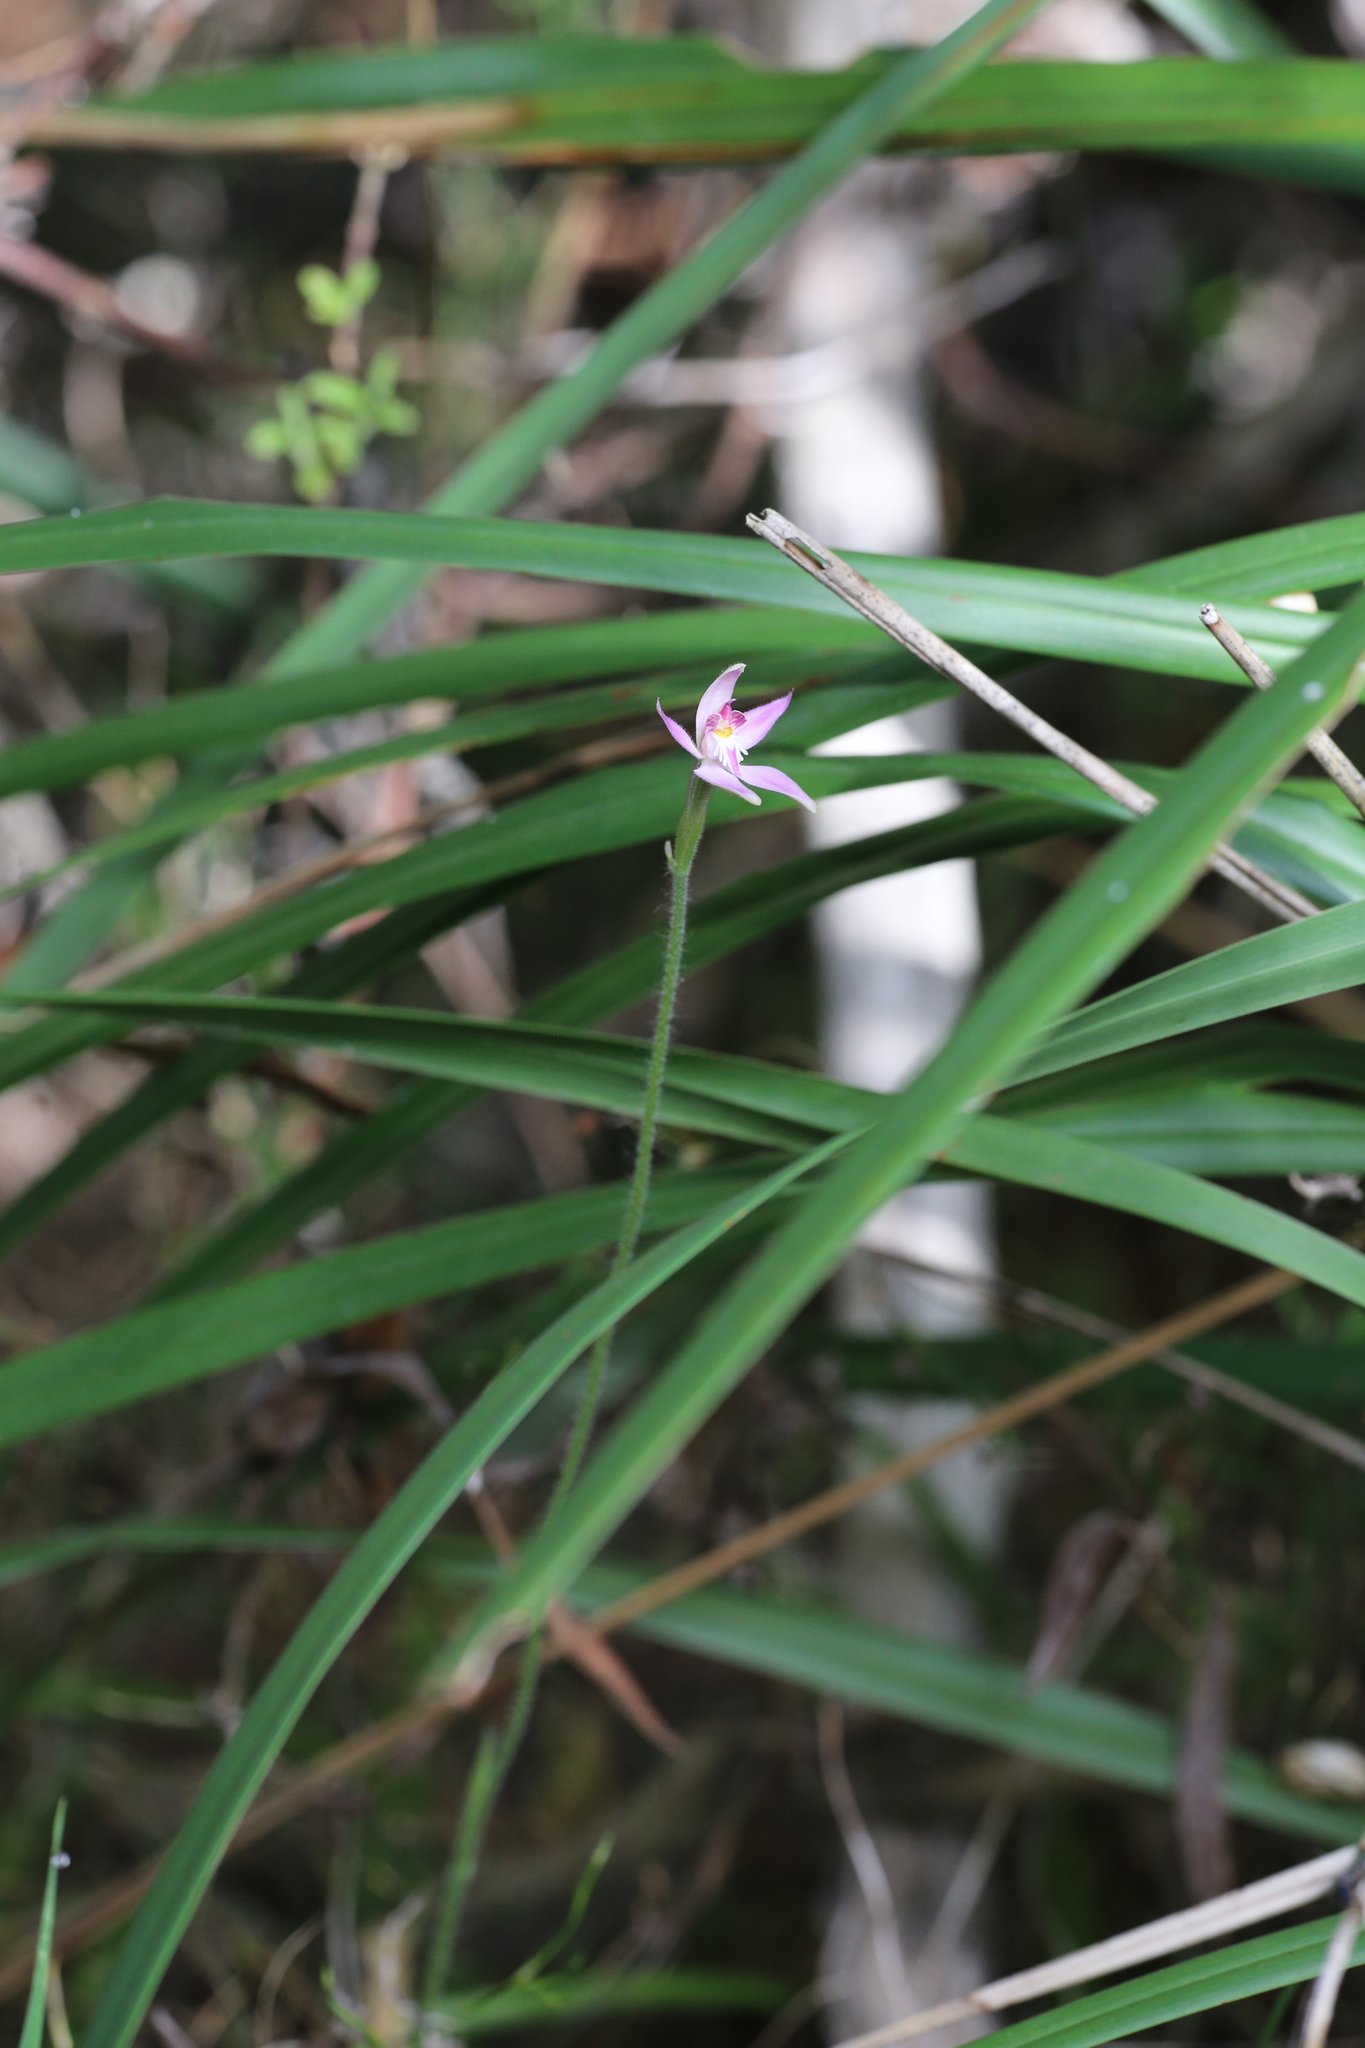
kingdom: Plantae
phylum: Tracheophyta
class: Liliopsida
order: Asparagales
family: Orchidaceae
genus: Caladenia
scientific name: Caladenia latifolia
